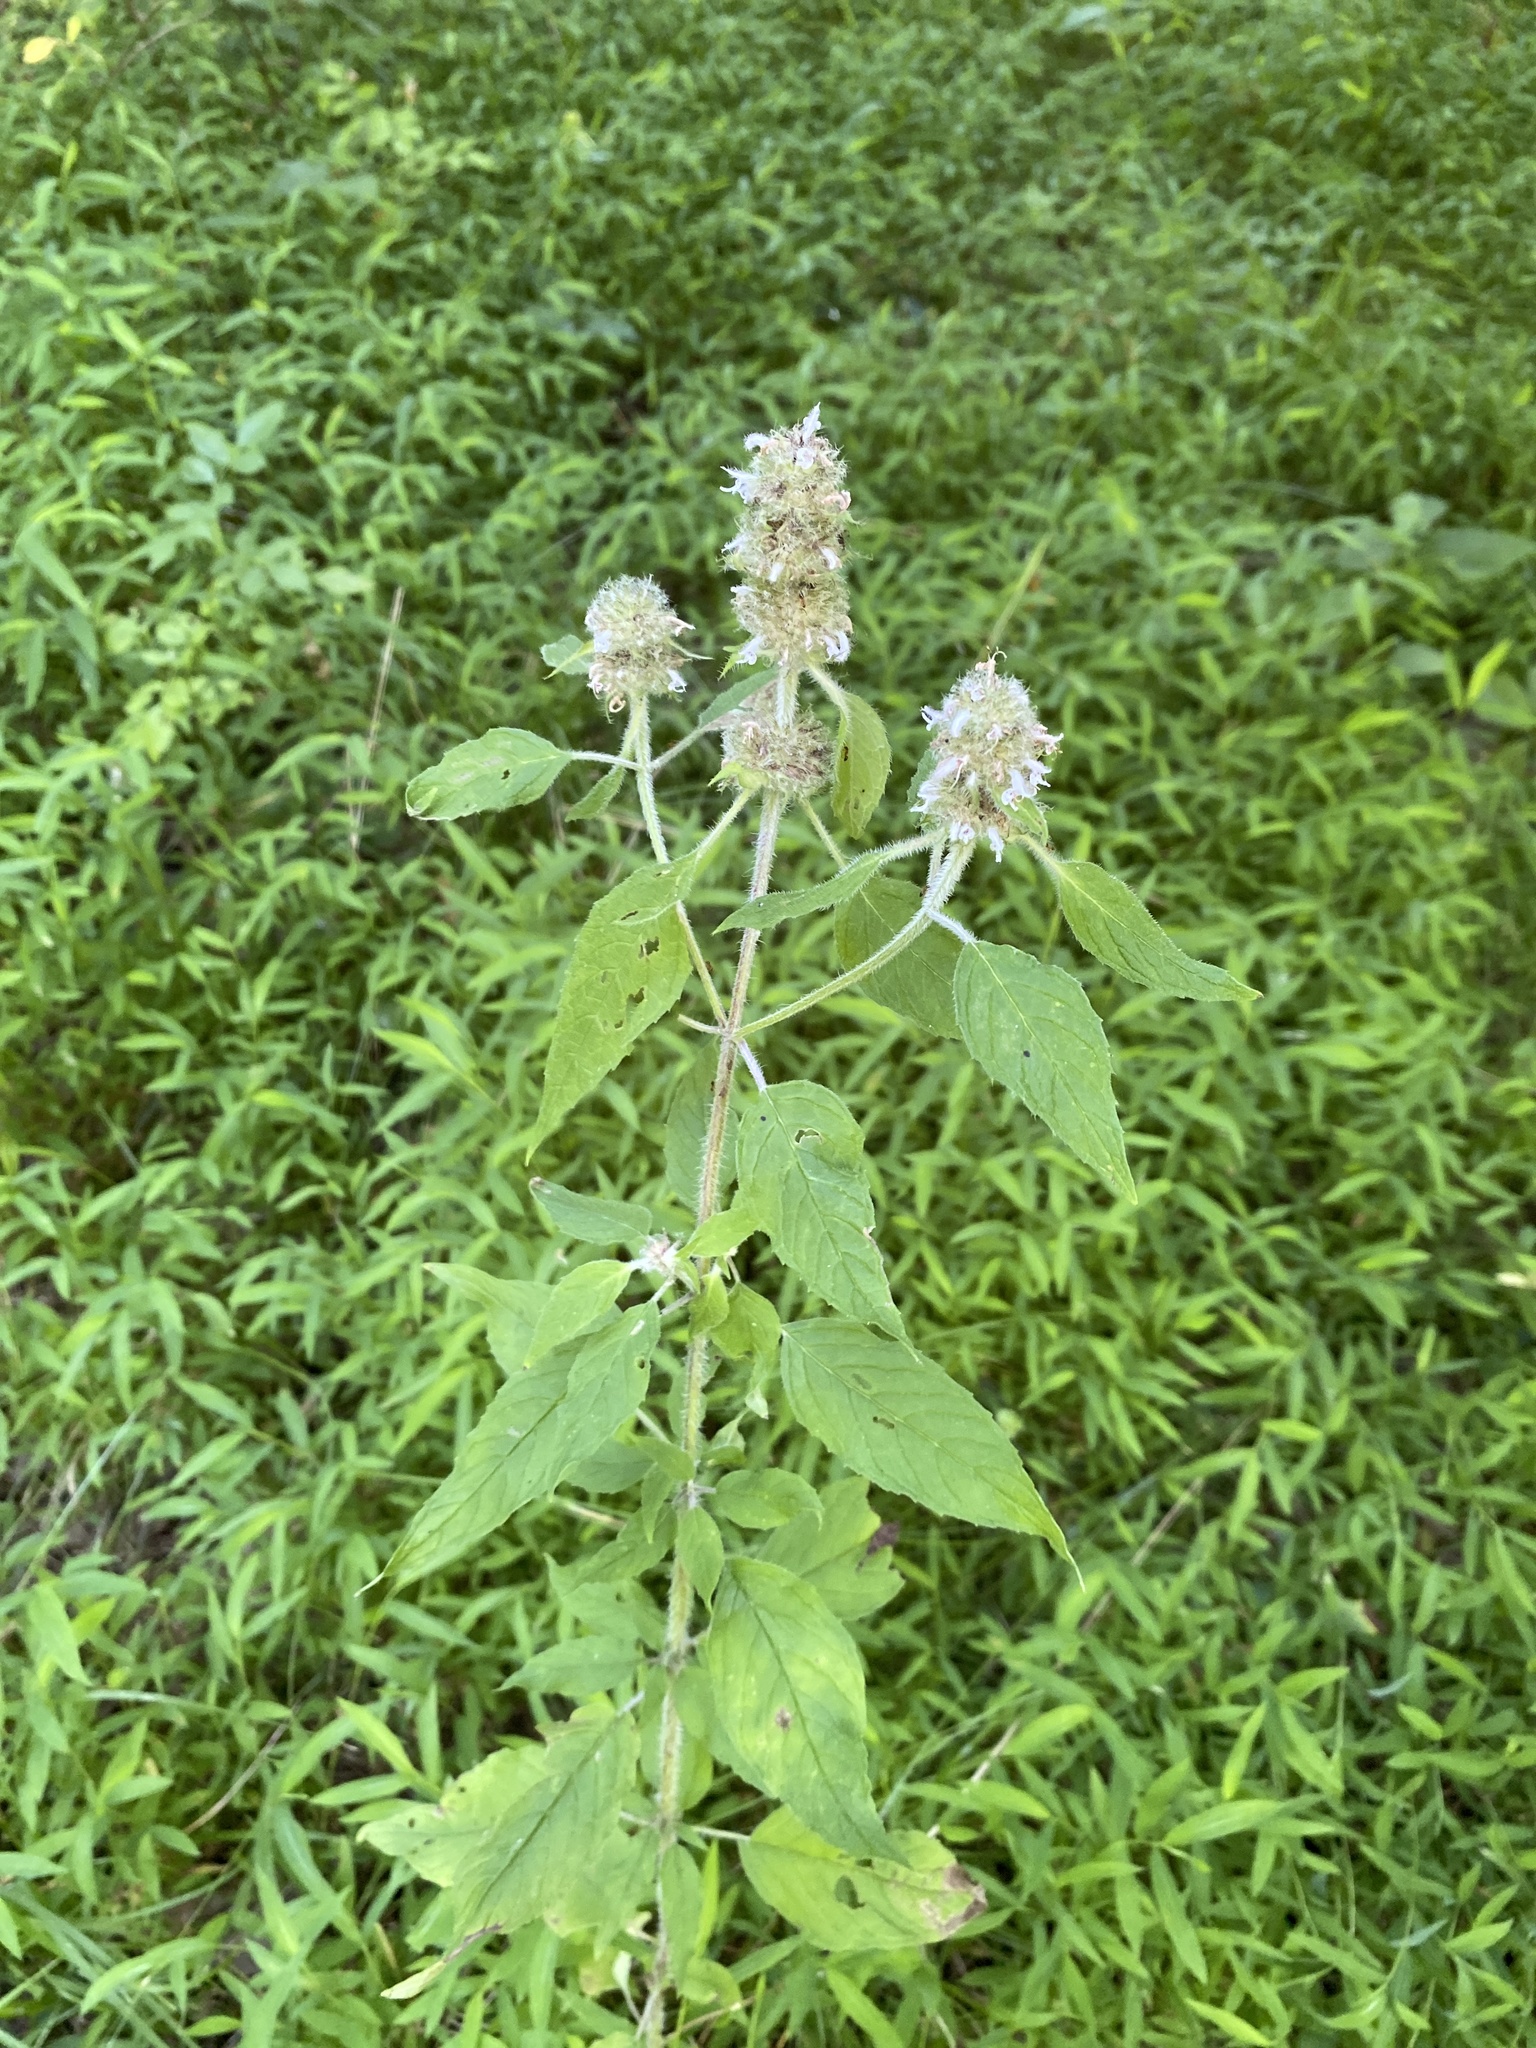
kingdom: Plantae
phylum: Tracheophyta
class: Magnoliopsida
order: Lamiales
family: Lamiaceae
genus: Blephilia
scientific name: Blephilia hirsuta
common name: Hairy blephilia
